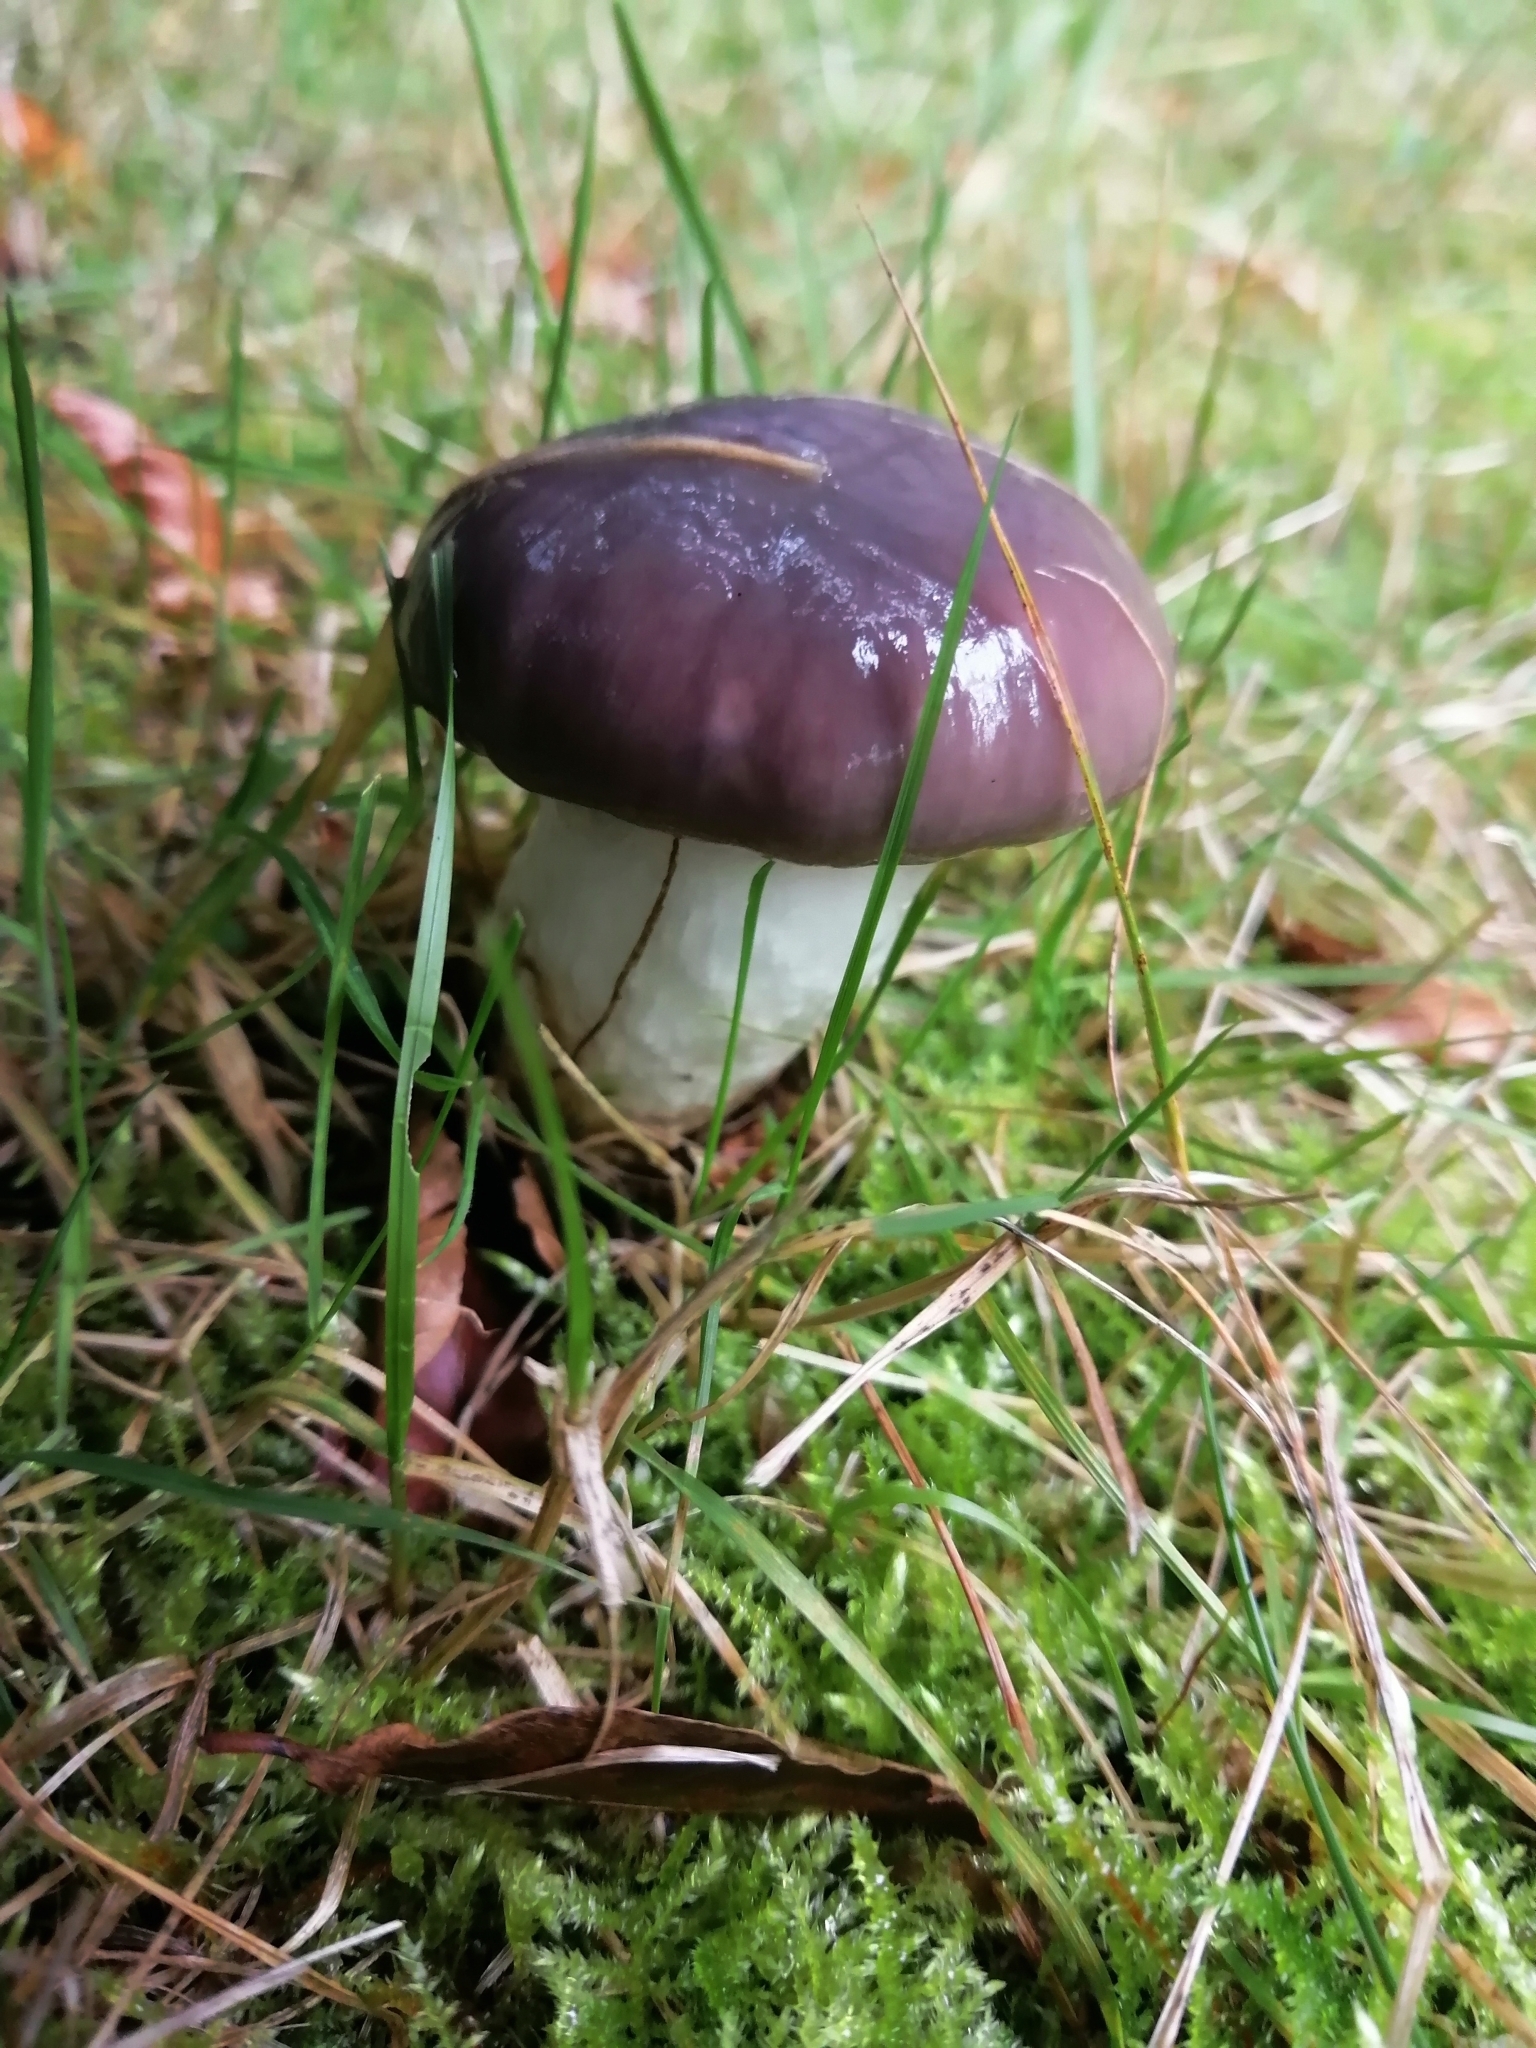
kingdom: Fungi
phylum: Basidiomycota
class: Agaricomycetes
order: Boletales
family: Gomphidiaceae
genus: Gomphidius
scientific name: Gomphidius glutinosus
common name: Slimy spike
